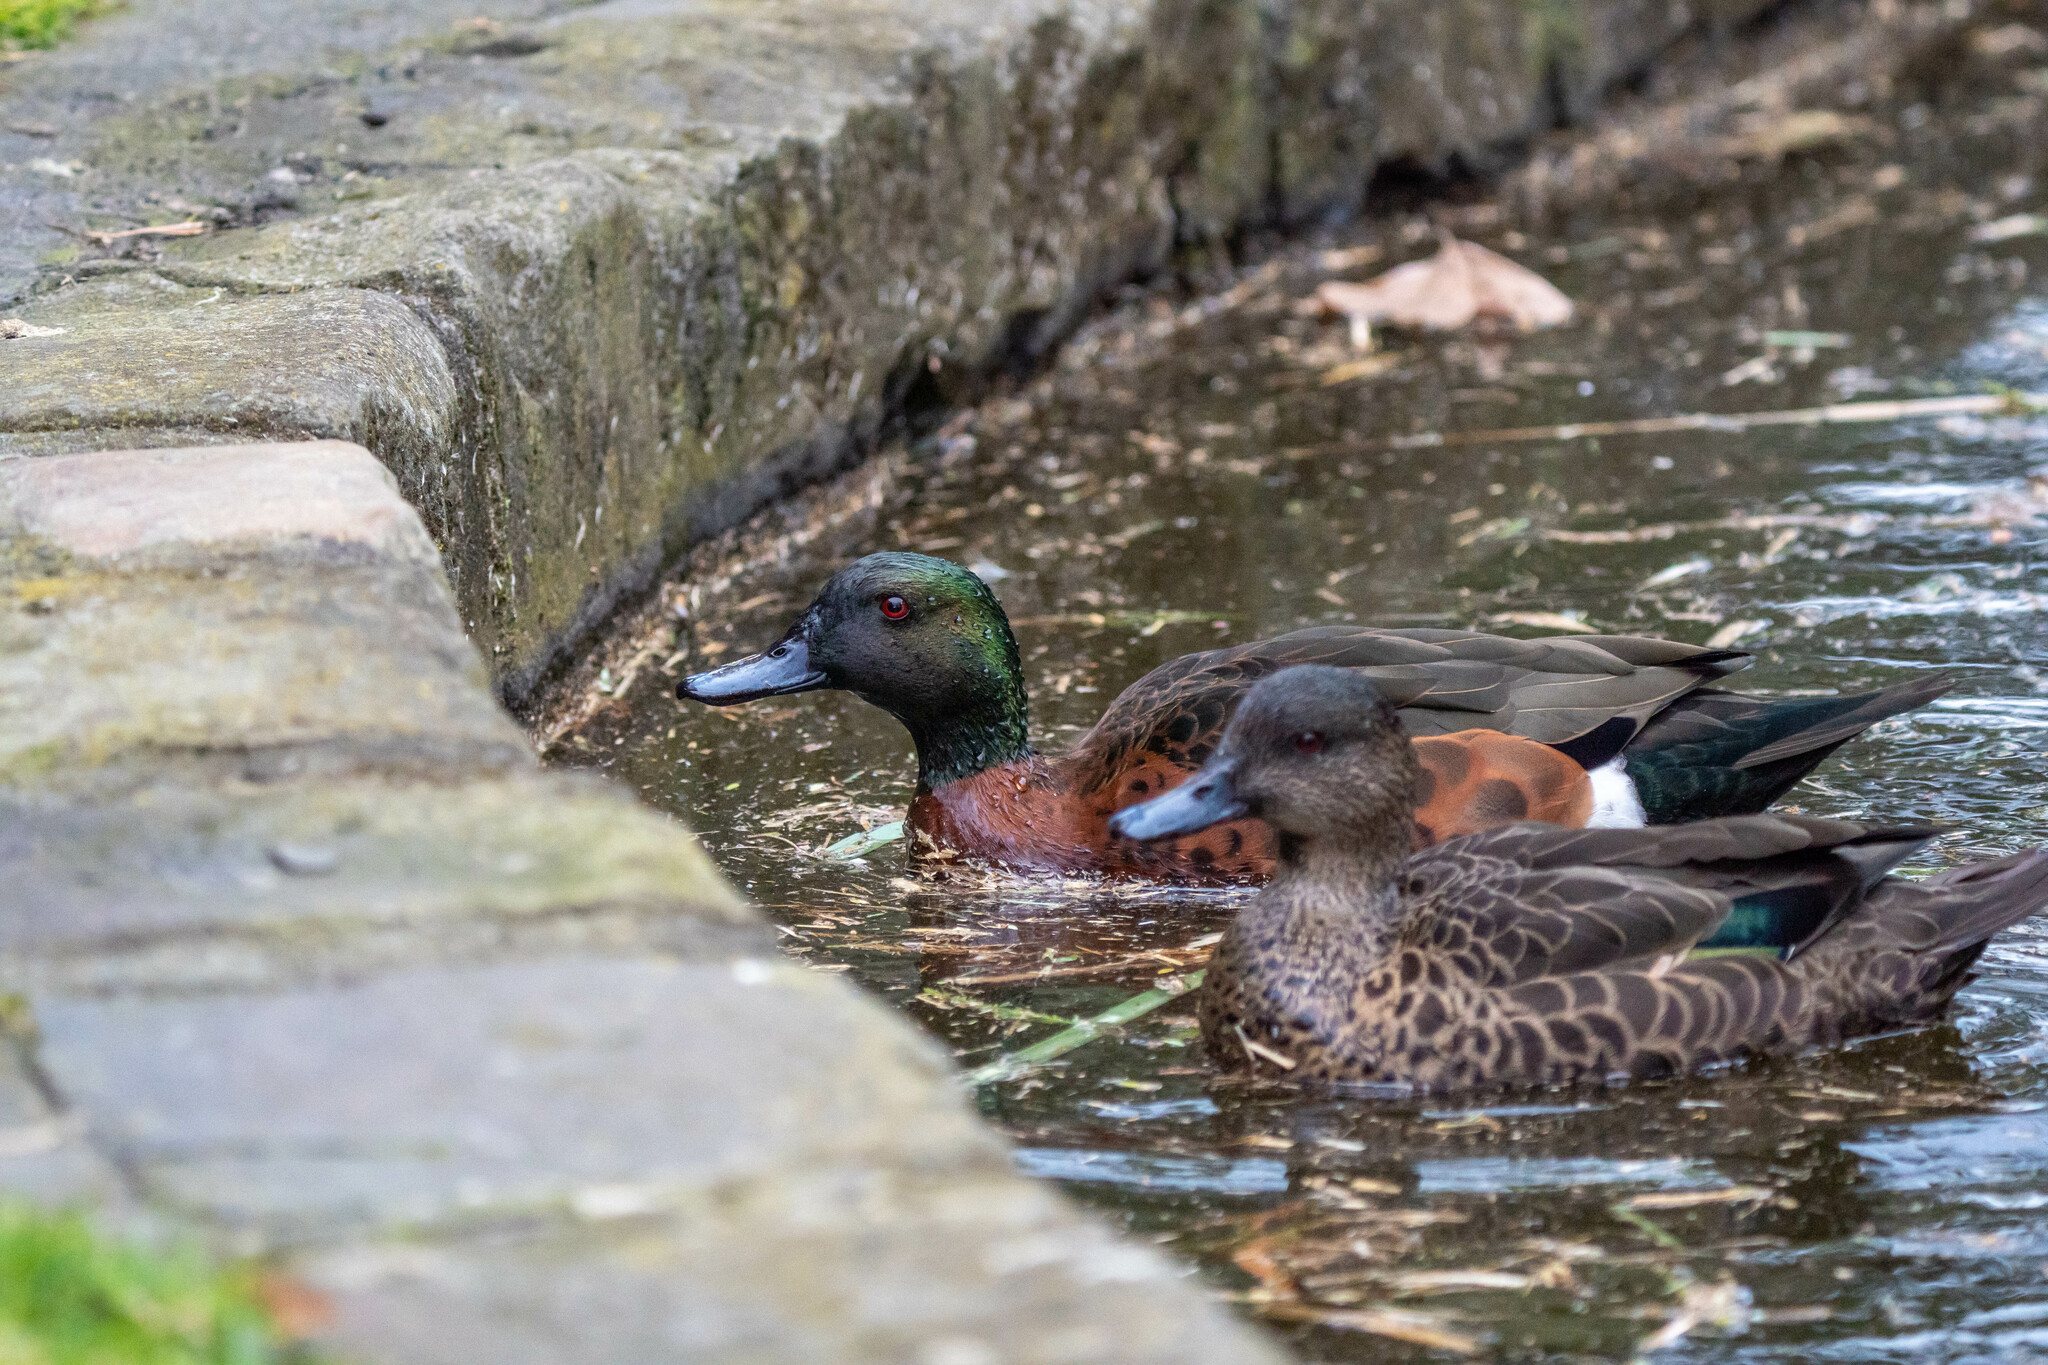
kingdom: Animalia
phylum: Chordata
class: Aves
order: Anseriformes
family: Anatidae
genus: Anas
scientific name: Anas castanea
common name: Chestnut teal
